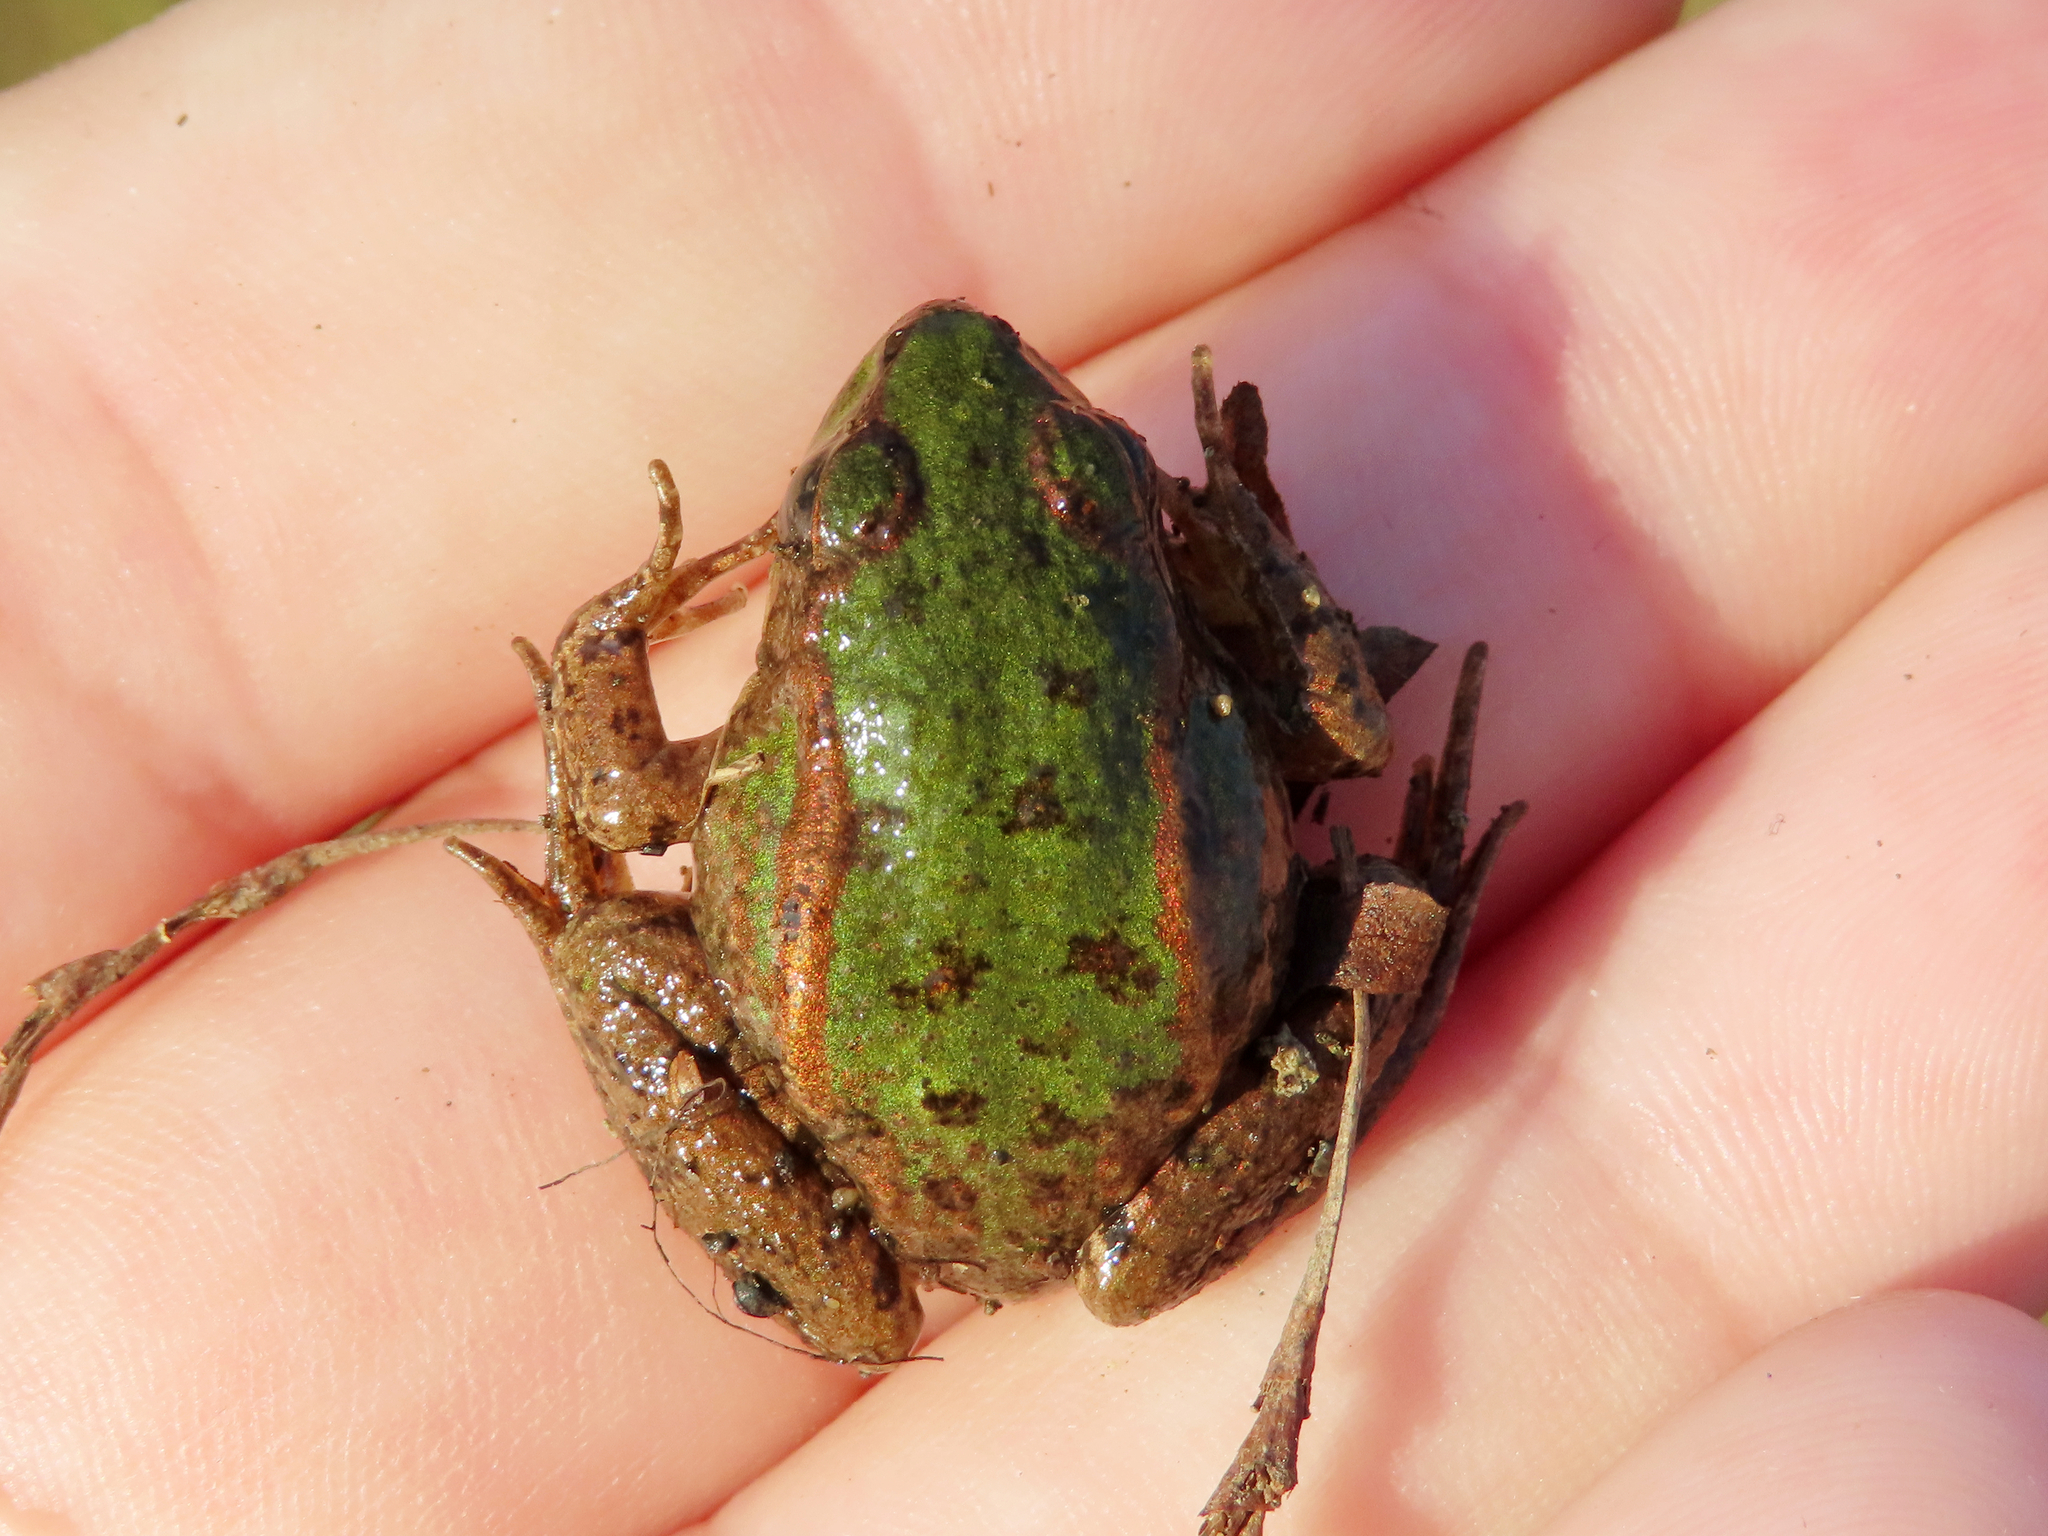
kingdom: Animalia
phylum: Chordata
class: Amphibia
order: Anura
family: Ranidae
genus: Pelophylax
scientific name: Pelophylax ridibundus
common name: Marsh frog
